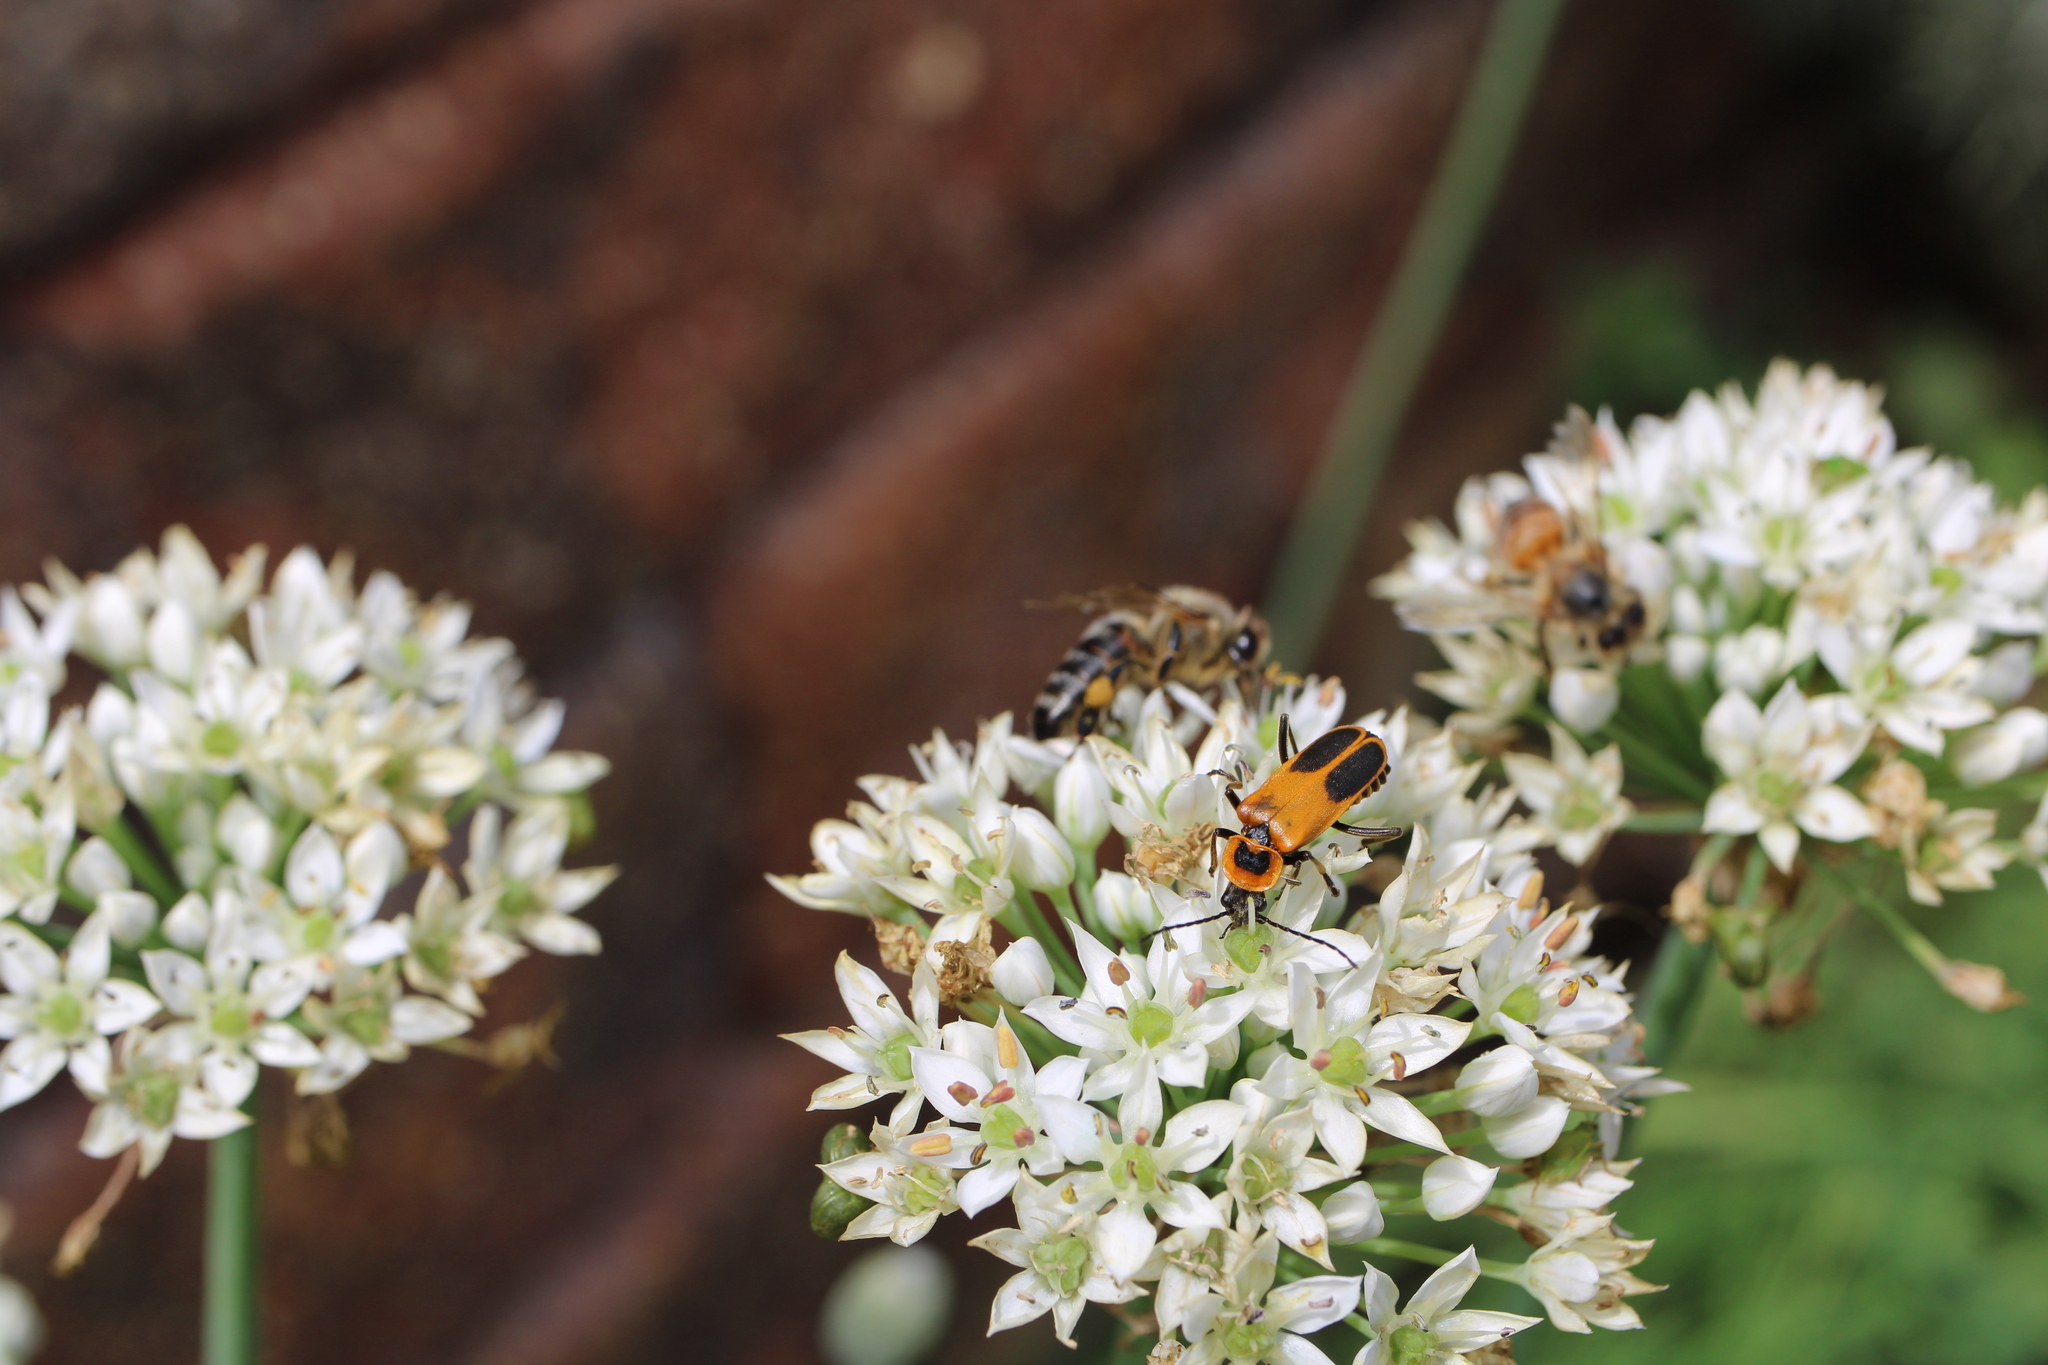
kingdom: Animalia
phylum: Arthropoda
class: Insecta
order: Coleoptera
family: Cantharidae
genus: Chauliognathus
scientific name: Chauliognathus pensylvanicus
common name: Goldenrod soldier beetle
